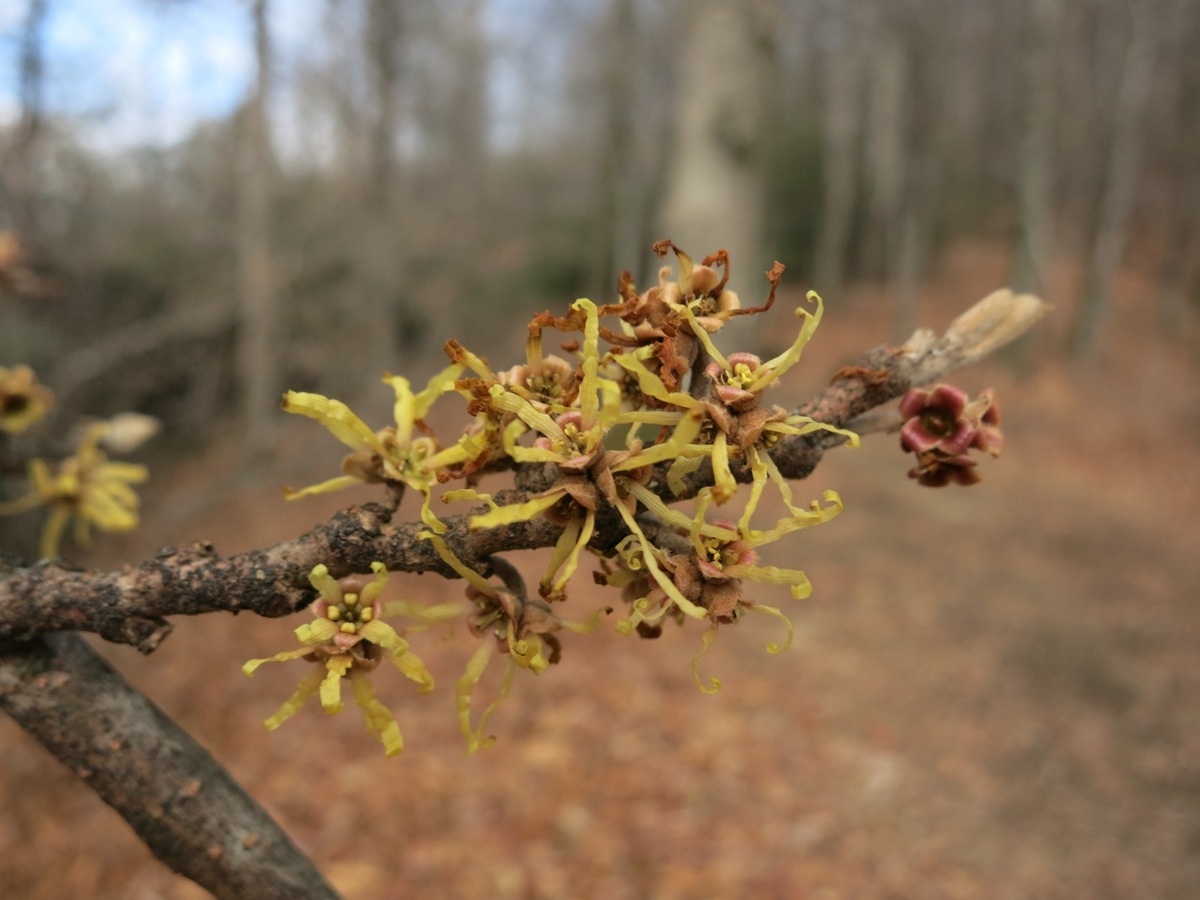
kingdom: Plantae
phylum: Tracheophyta
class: Magnoliopsida
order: Saxifragales
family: Hamamelidaceae
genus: Hamamelis
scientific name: Hamamelis virginiana
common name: Witch-hazel
